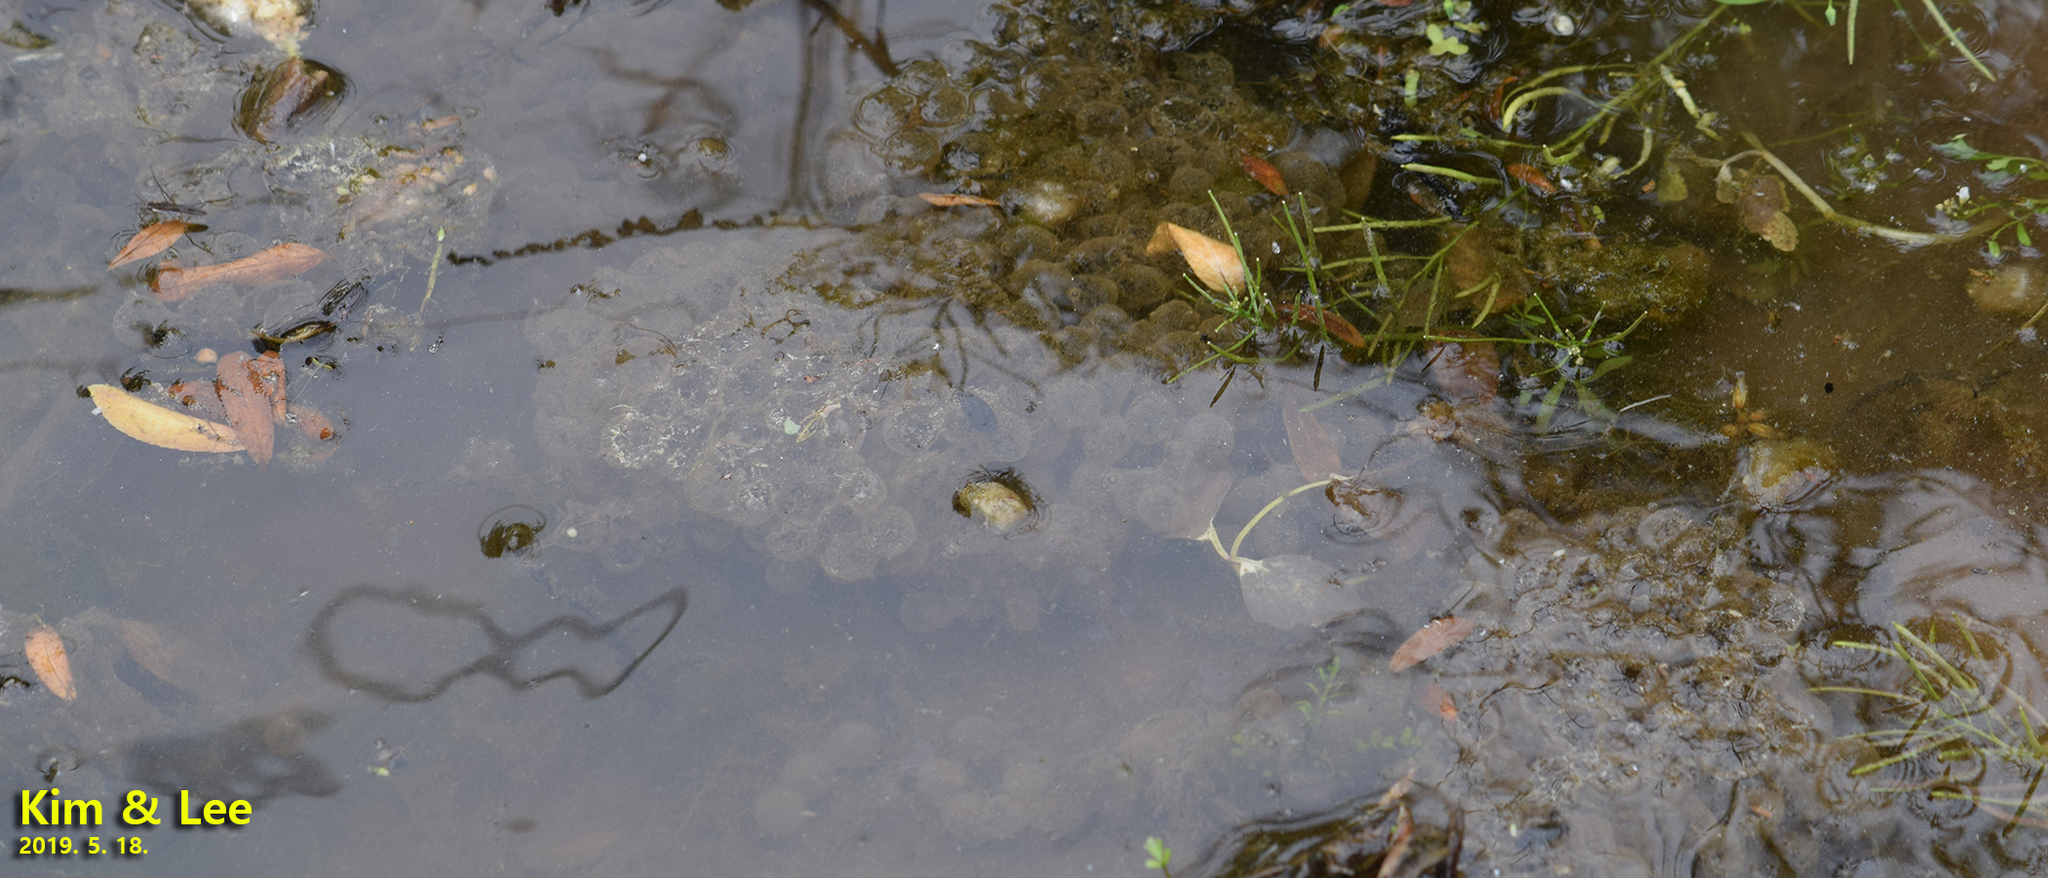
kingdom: Animalia
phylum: Chordata
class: Amphibia
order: Anura
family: Ranidae
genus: Pelophylax
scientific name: Pelophylax nigromaculatus
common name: Black-spotted pond frog
